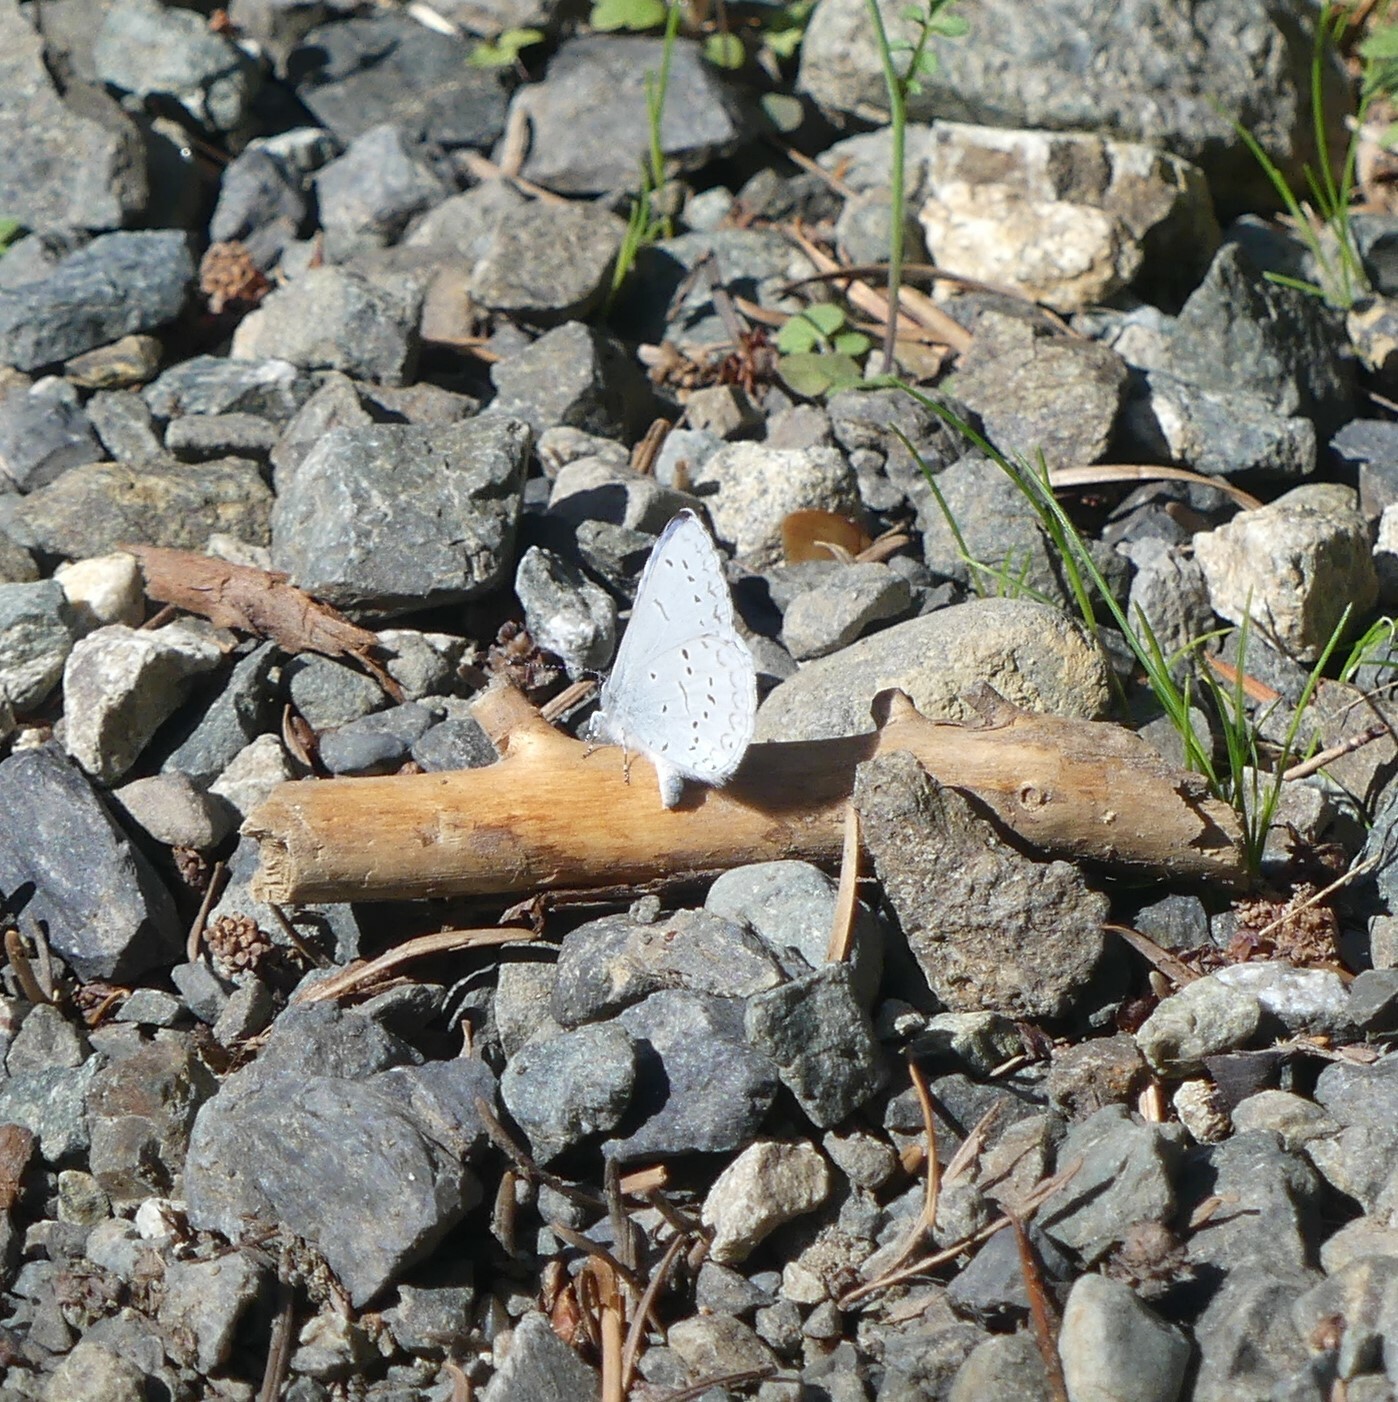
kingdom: Animalia
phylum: Arthropoda
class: Insecta
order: Lepidoptera
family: Lycaenidae
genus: Celastrina
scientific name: Celastrina ladon
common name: Spring azure
